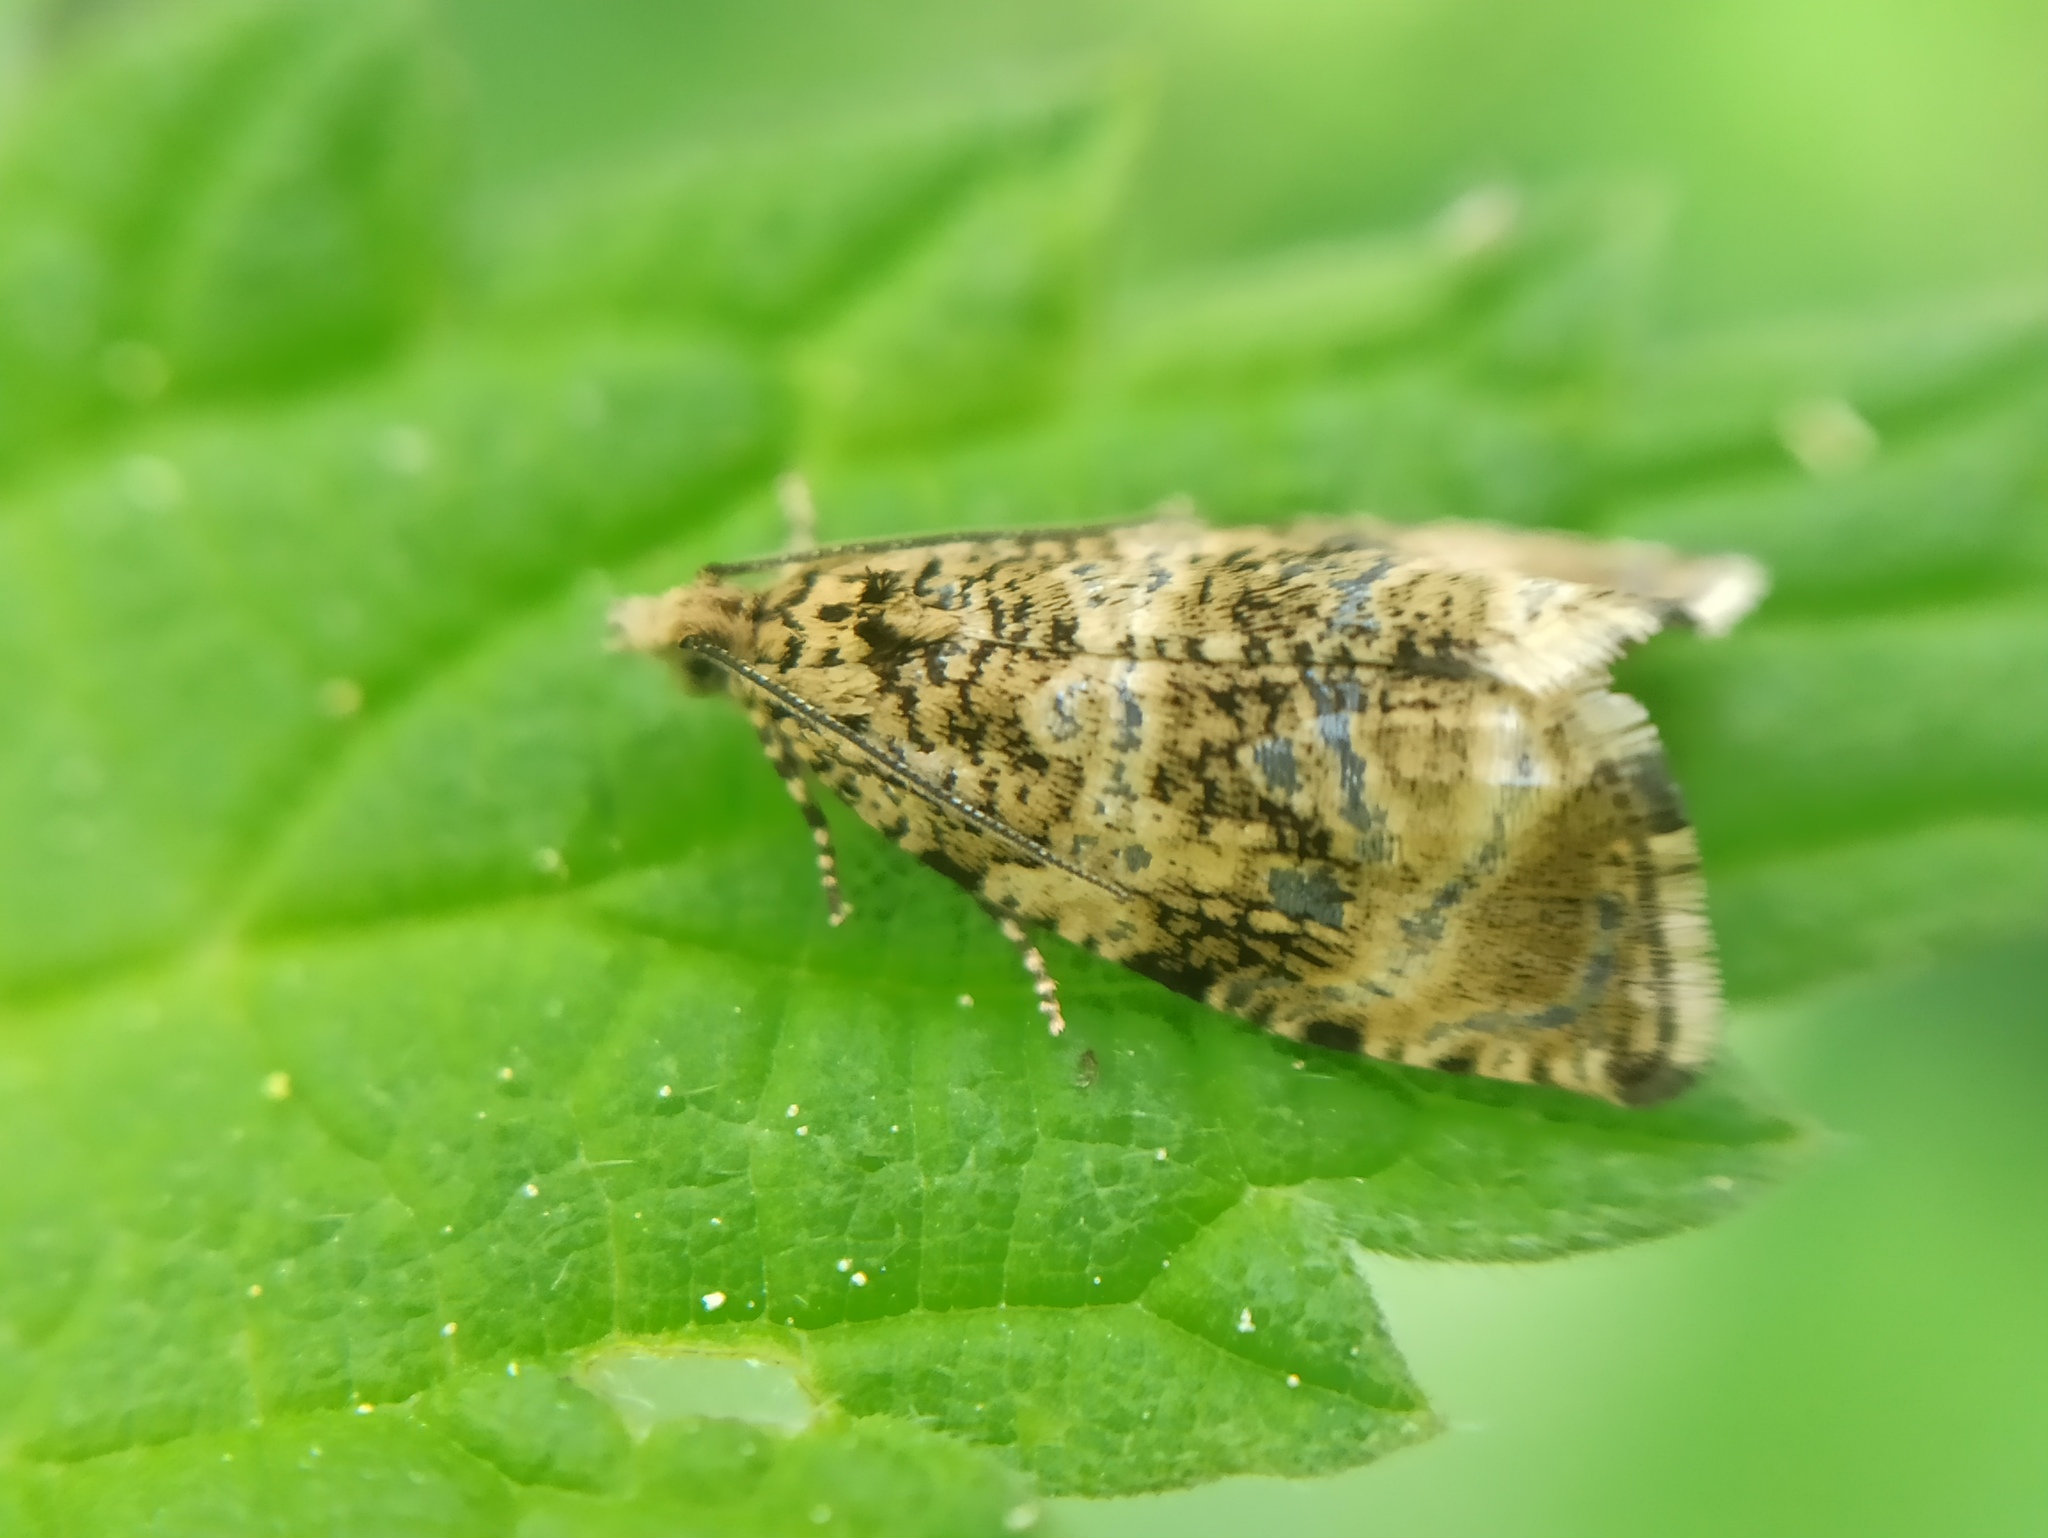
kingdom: Animalia
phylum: Arthropoda
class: Insecta
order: Lepidoptera
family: Tortricidae
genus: Syricoris
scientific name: Syricoris lacunana
